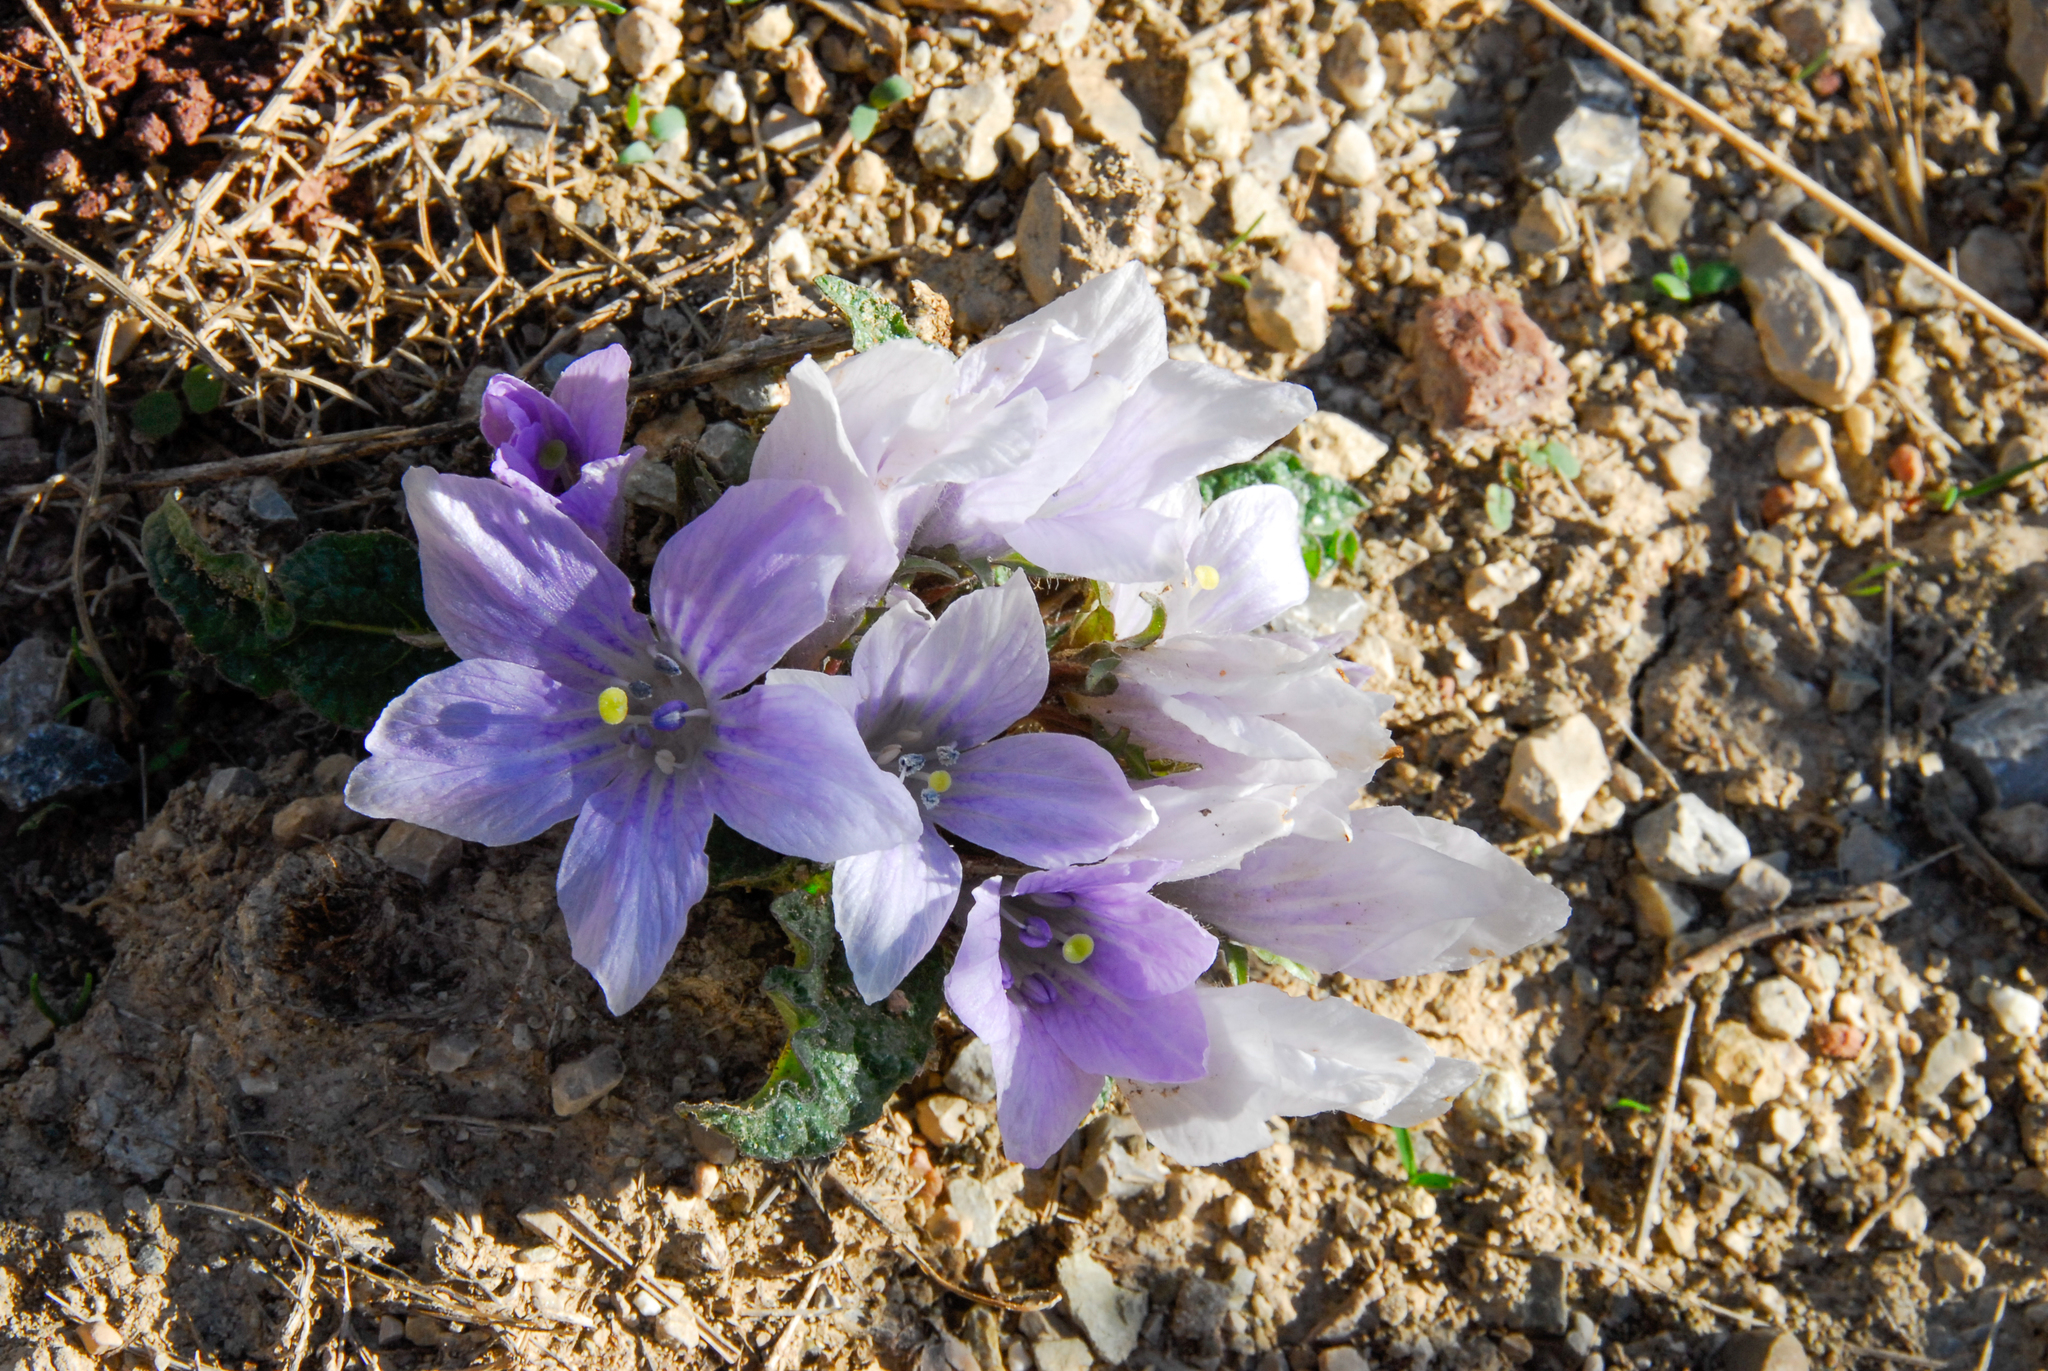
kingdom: Plantae
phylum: Tracheophyta
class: Magnoliopsida
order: Solanales
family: Solanaceae
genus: Mandragora
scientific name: Mandragora officinarum
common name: Mandrake
